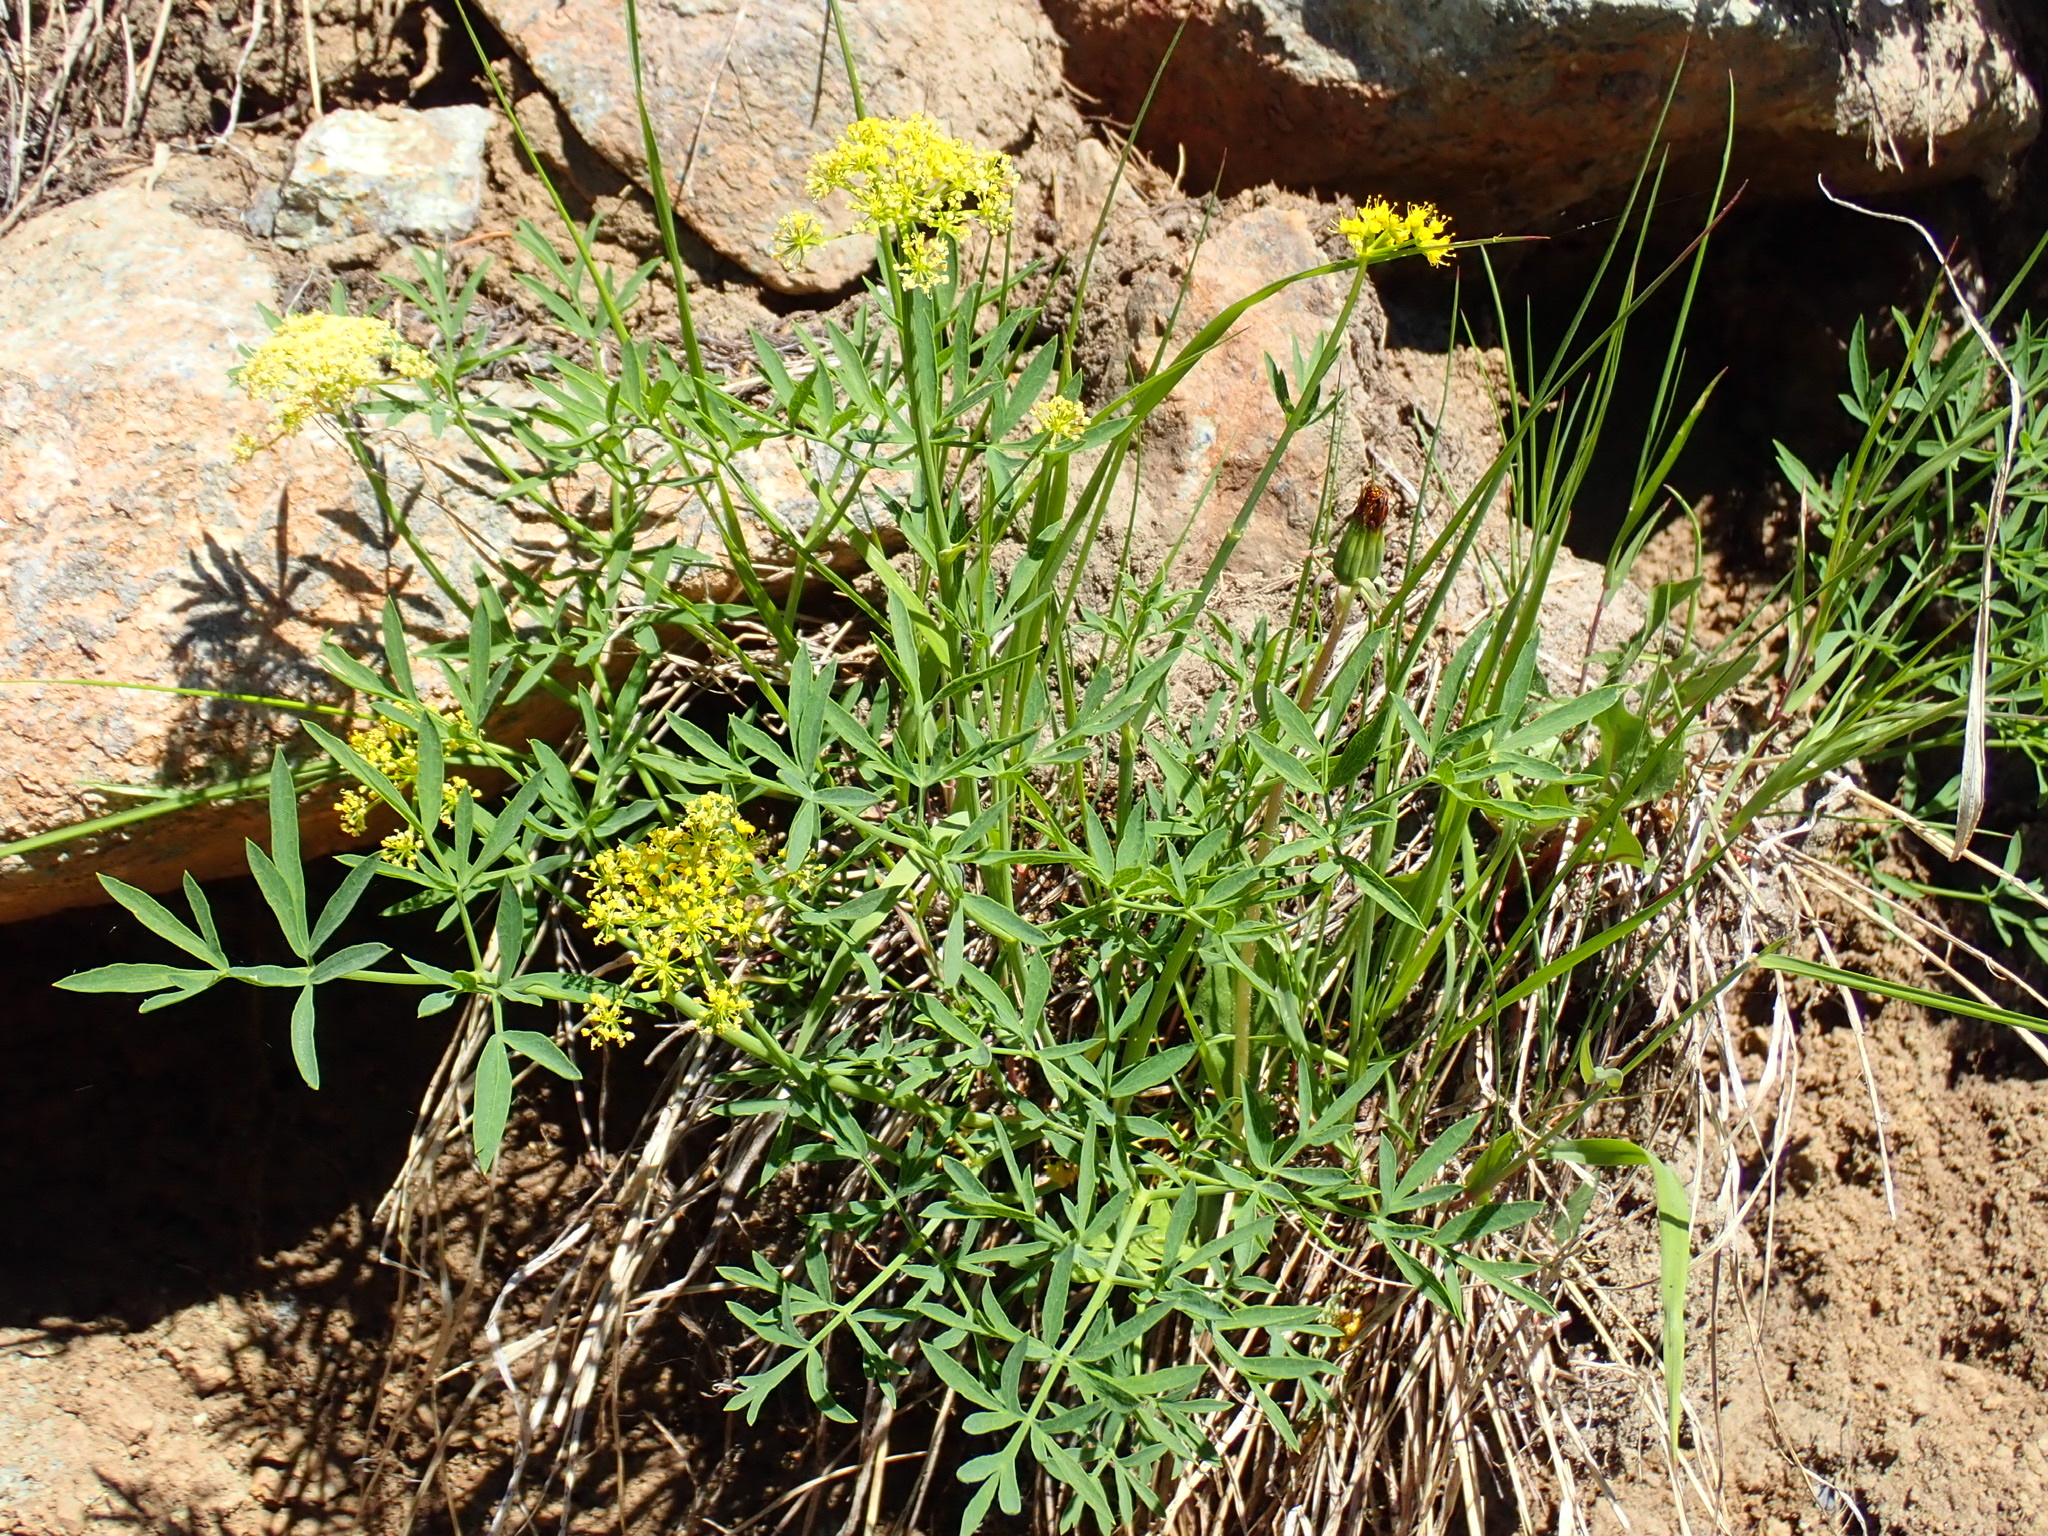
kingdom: Plantae
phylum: Tracheophyta
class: Magnoliopsida
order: Apiales
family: Apiaceae
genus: Lomatium
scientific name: Lomatium triternatum
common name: Ternate lomatium
